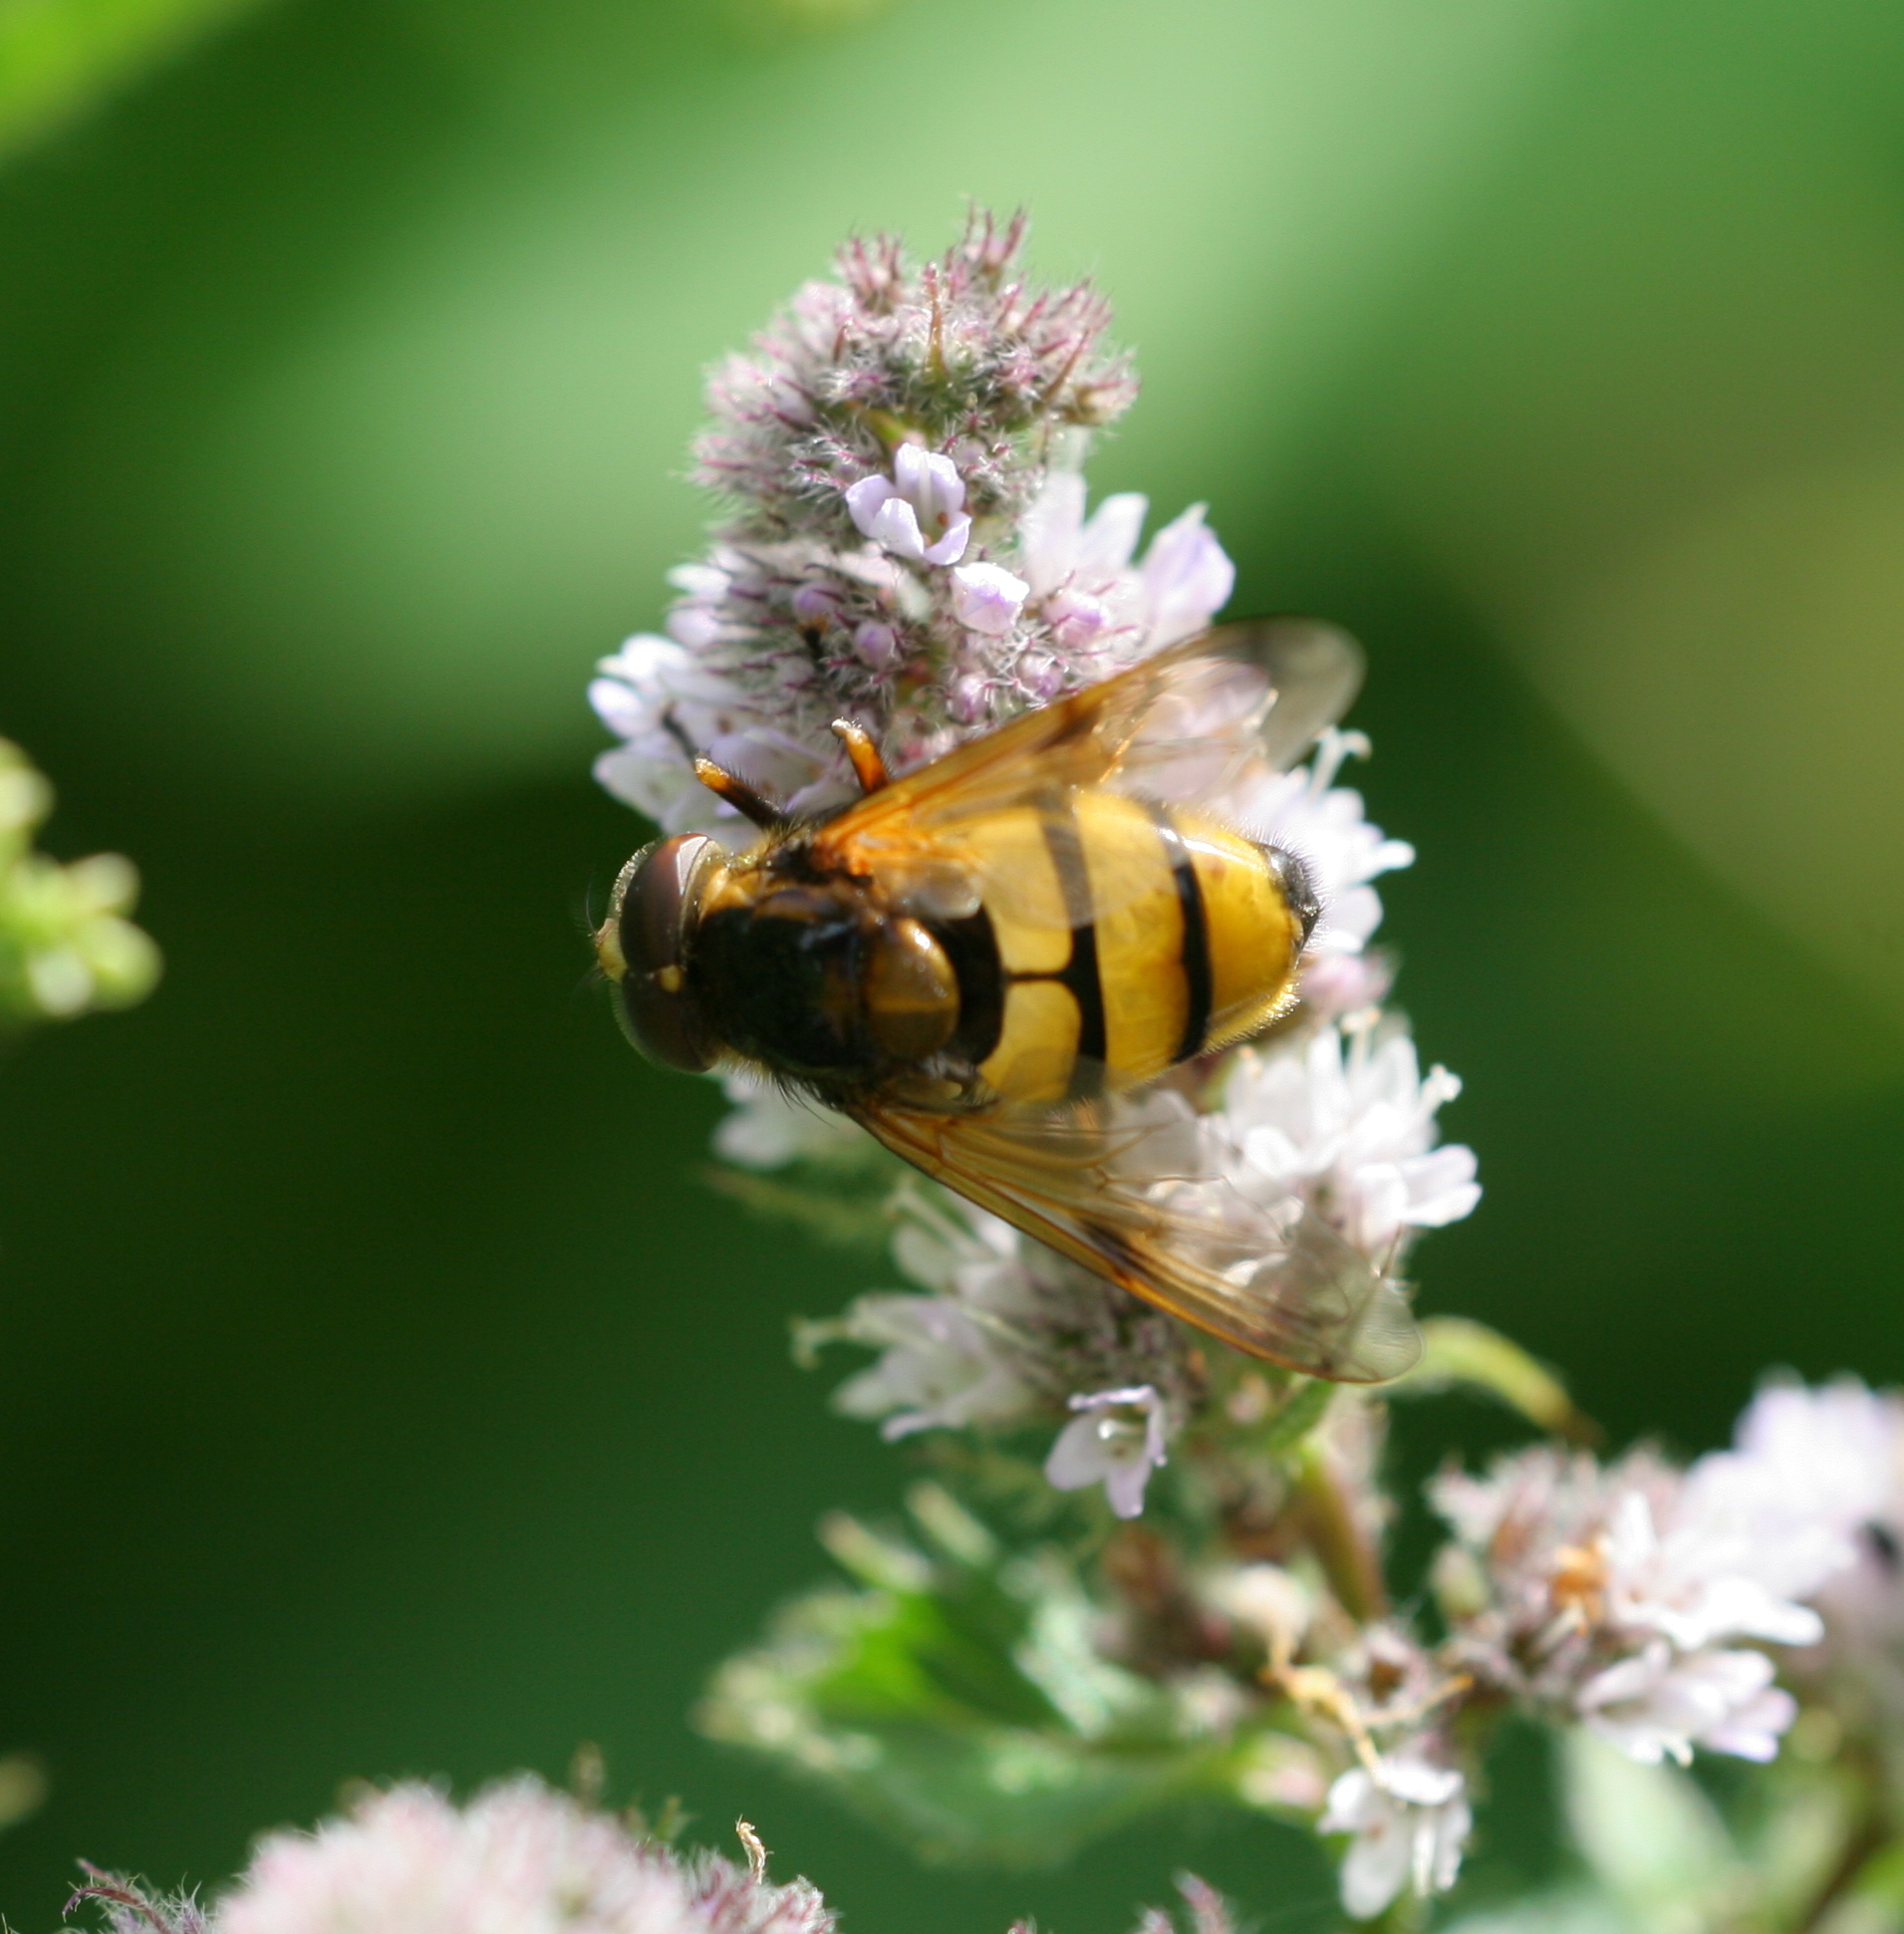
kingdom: Animalia
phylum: Arthropoda
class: Insecta
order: Diptera
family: Syrphidae
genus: Volucella
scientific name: Volucella inanis
